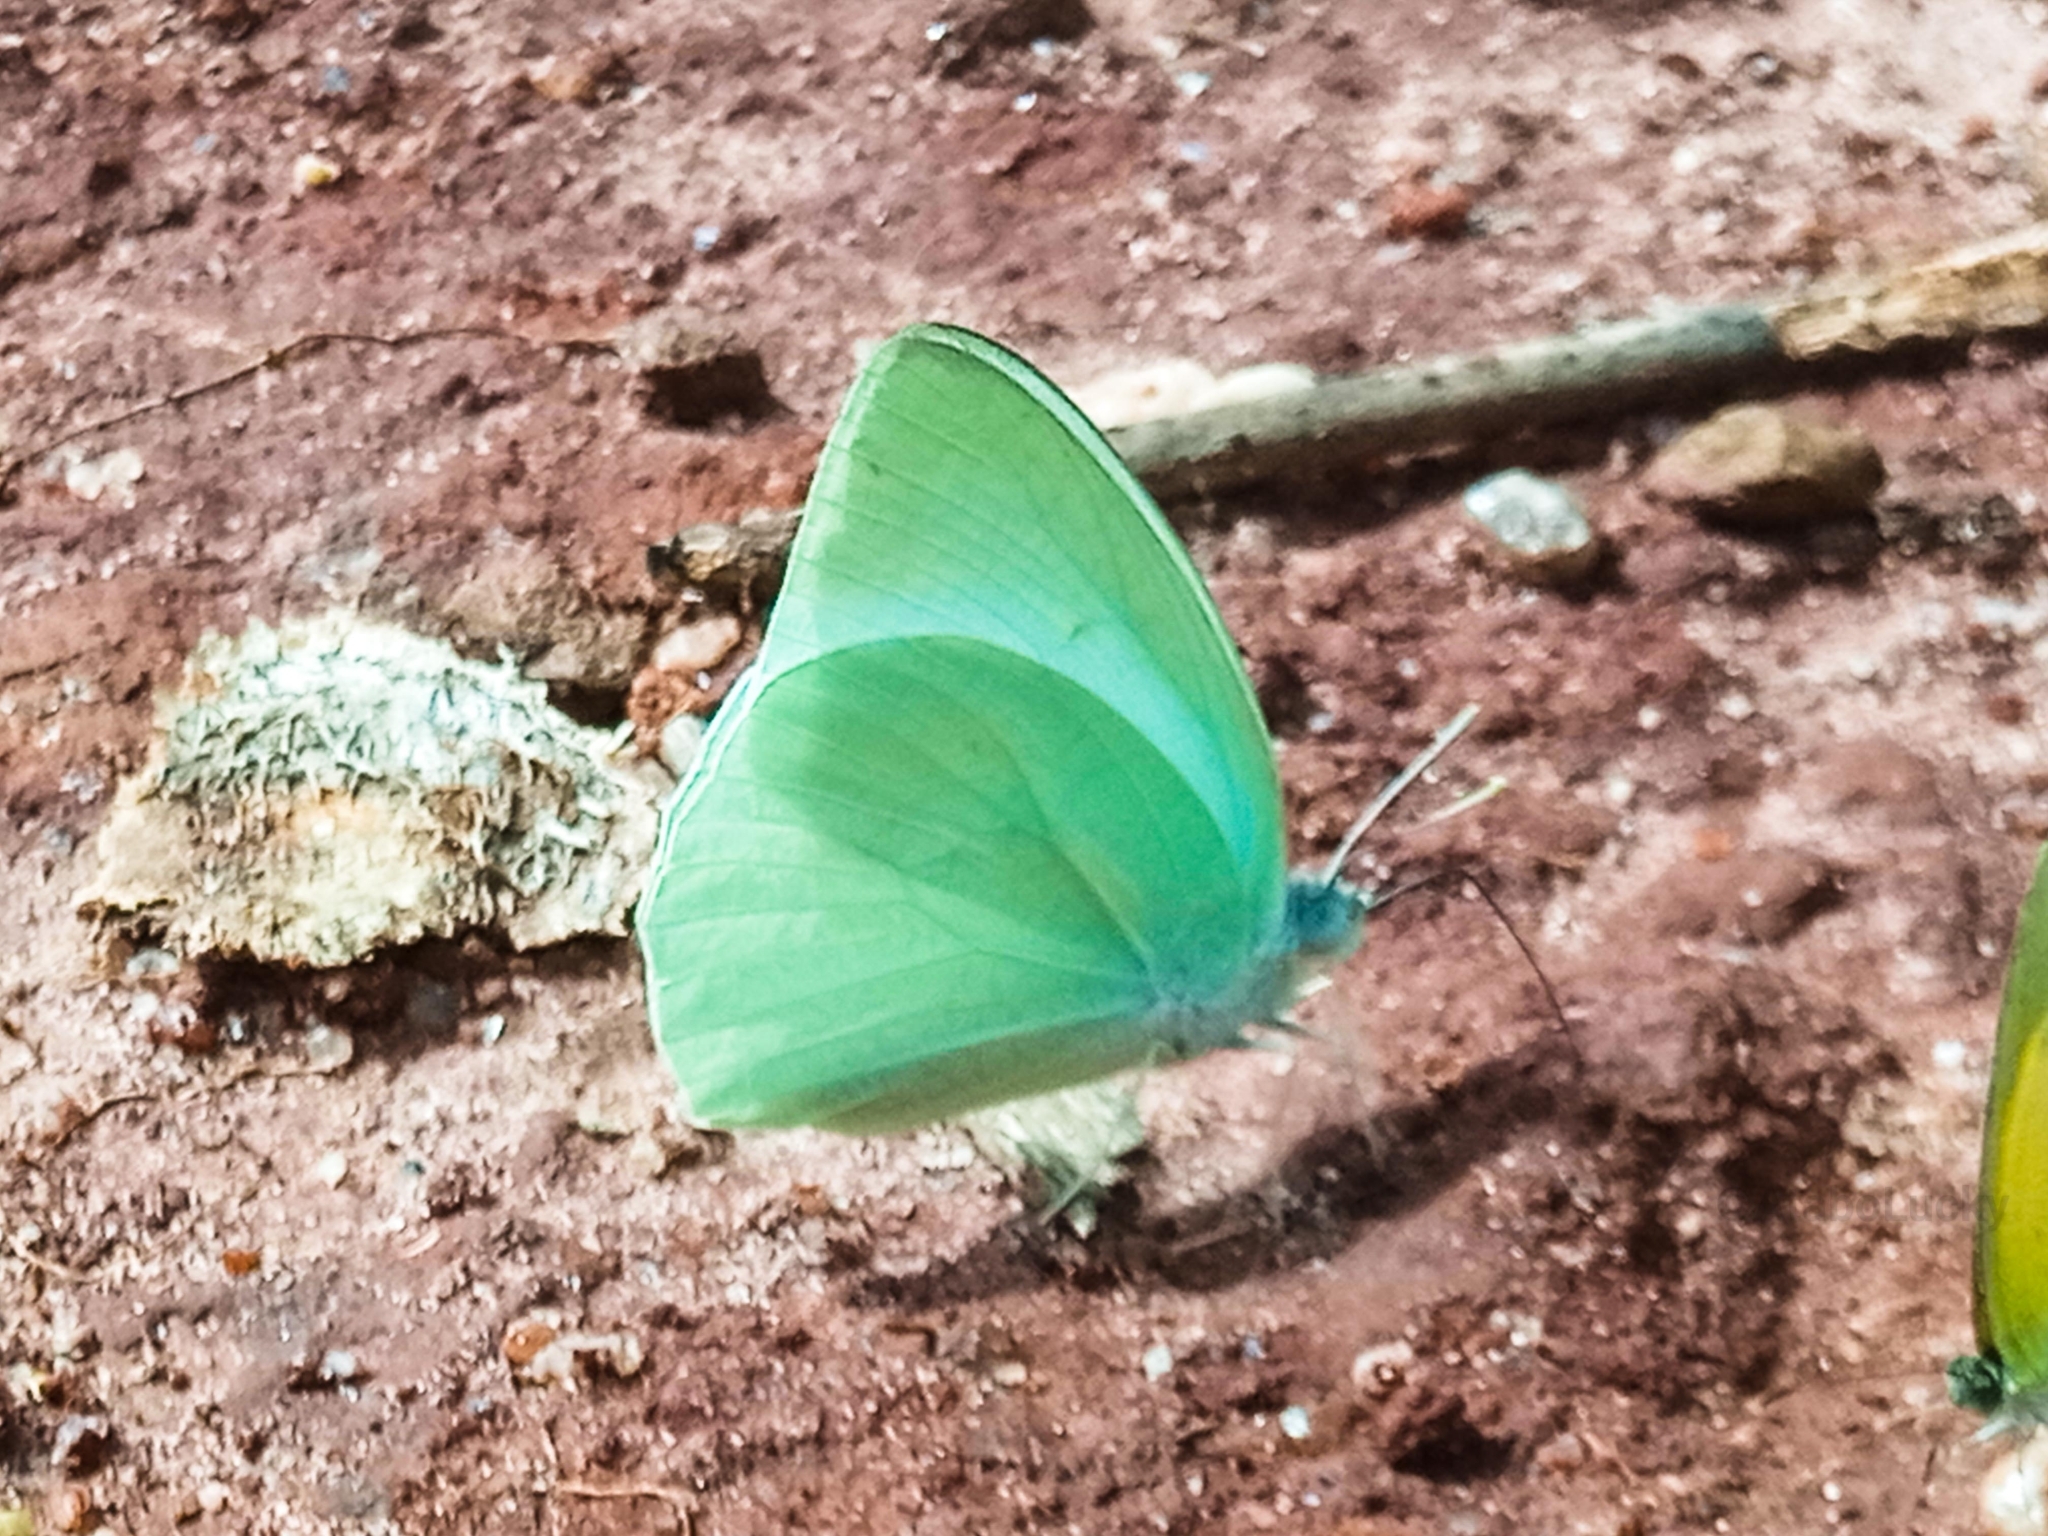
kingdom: Animalia
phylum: Arthropoda
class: Insecta
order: Lepidoptera
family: Pieridae
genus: Catopsilia
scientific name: Catopsilia florella
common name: African migrant
